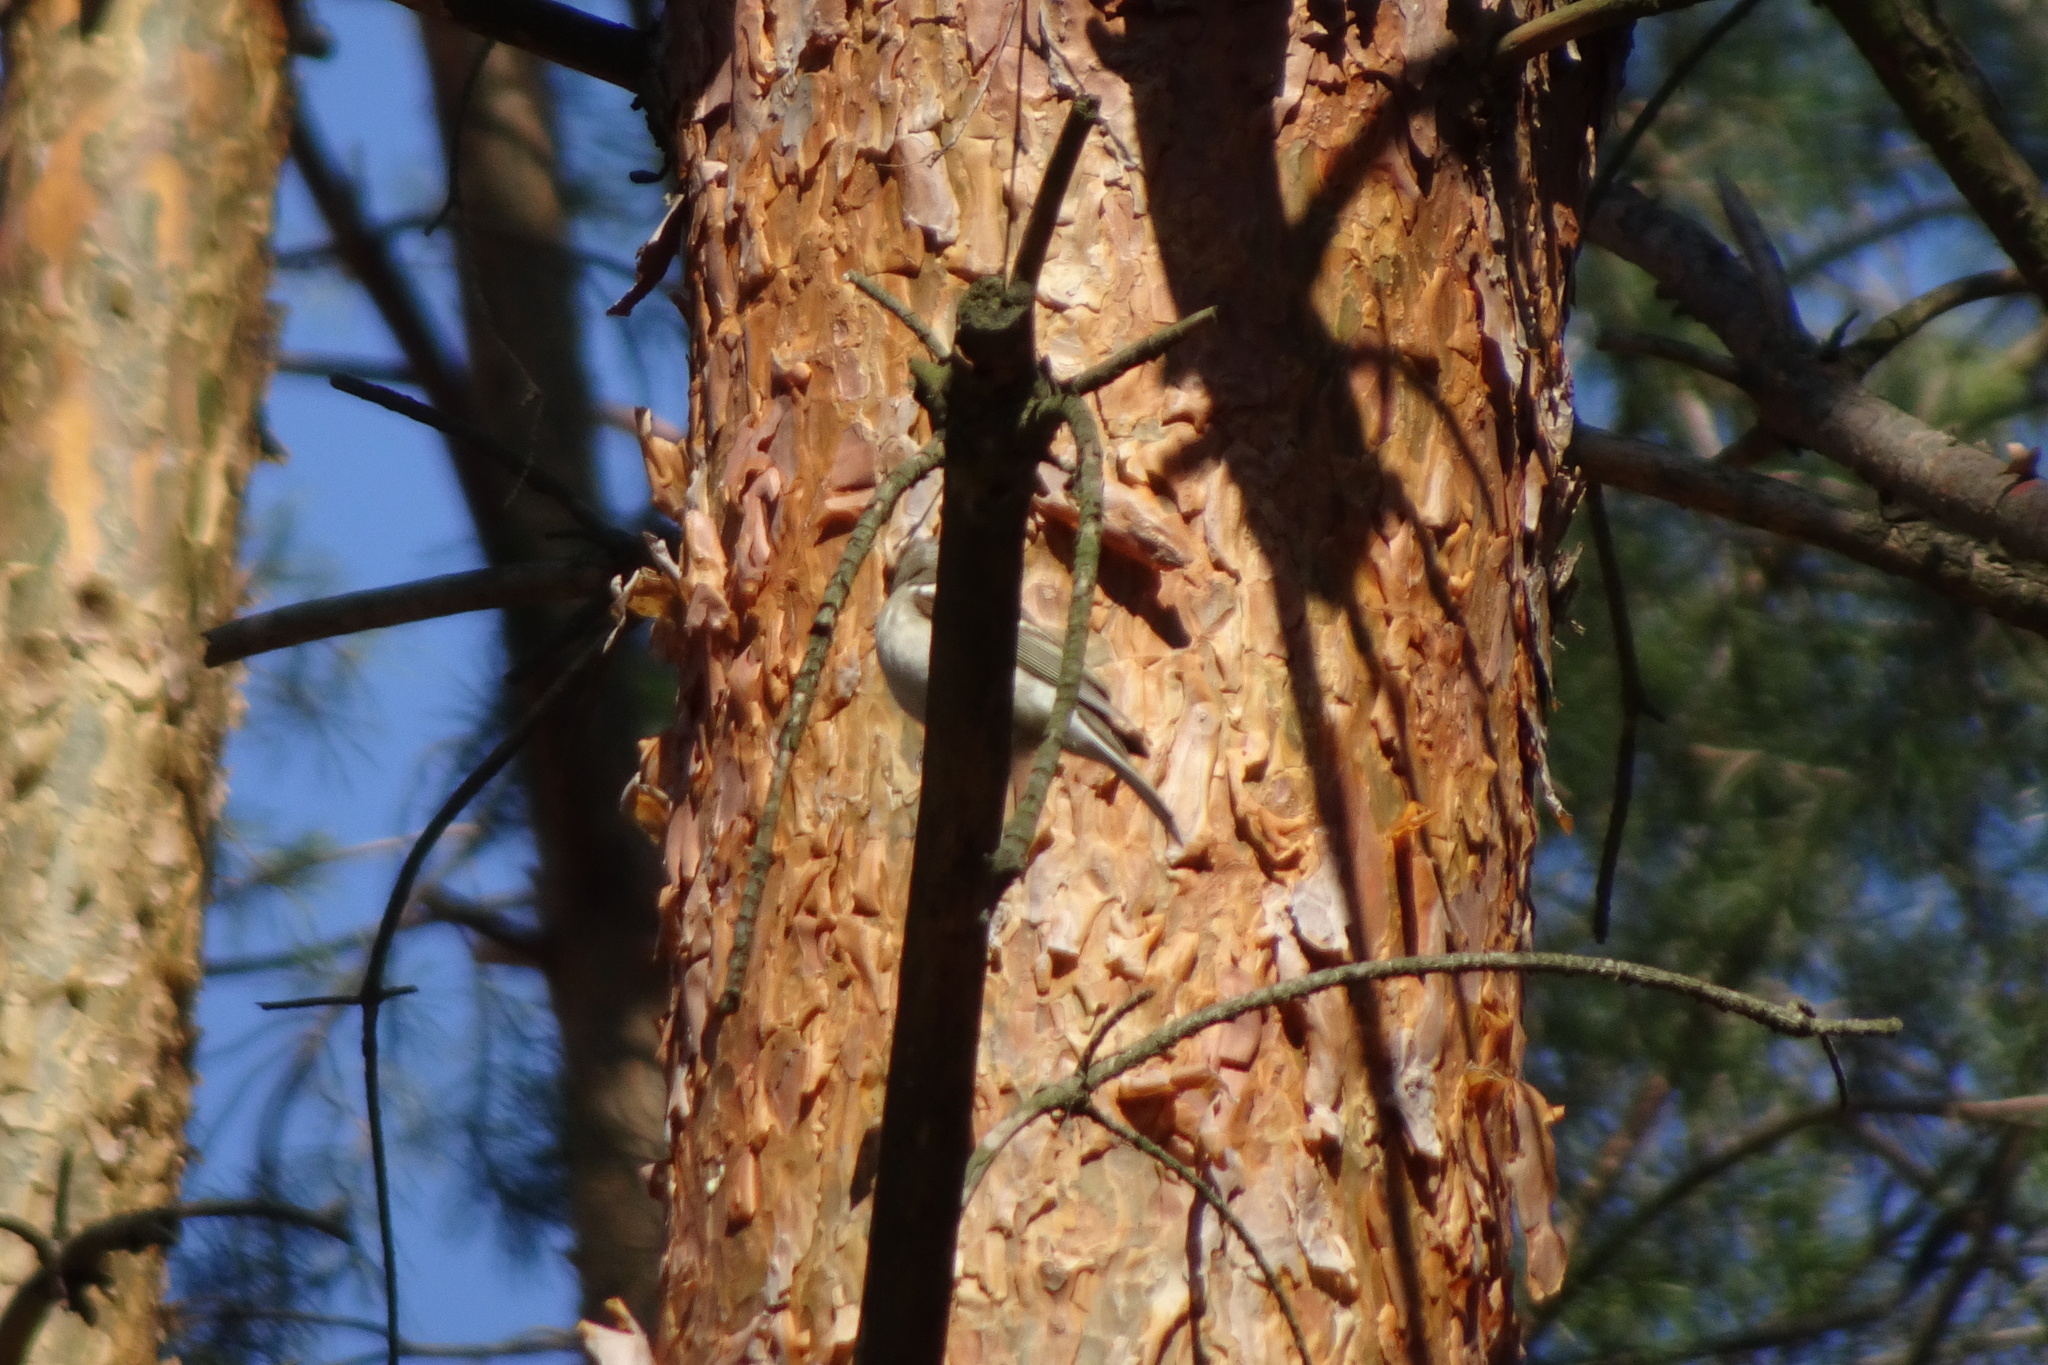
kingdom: Animalia
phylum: Chordata
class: Aves
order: Passeriformes
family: Fringillidae
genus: Fringilla
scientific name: Fringilla coelebs
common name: Common chaffinch
